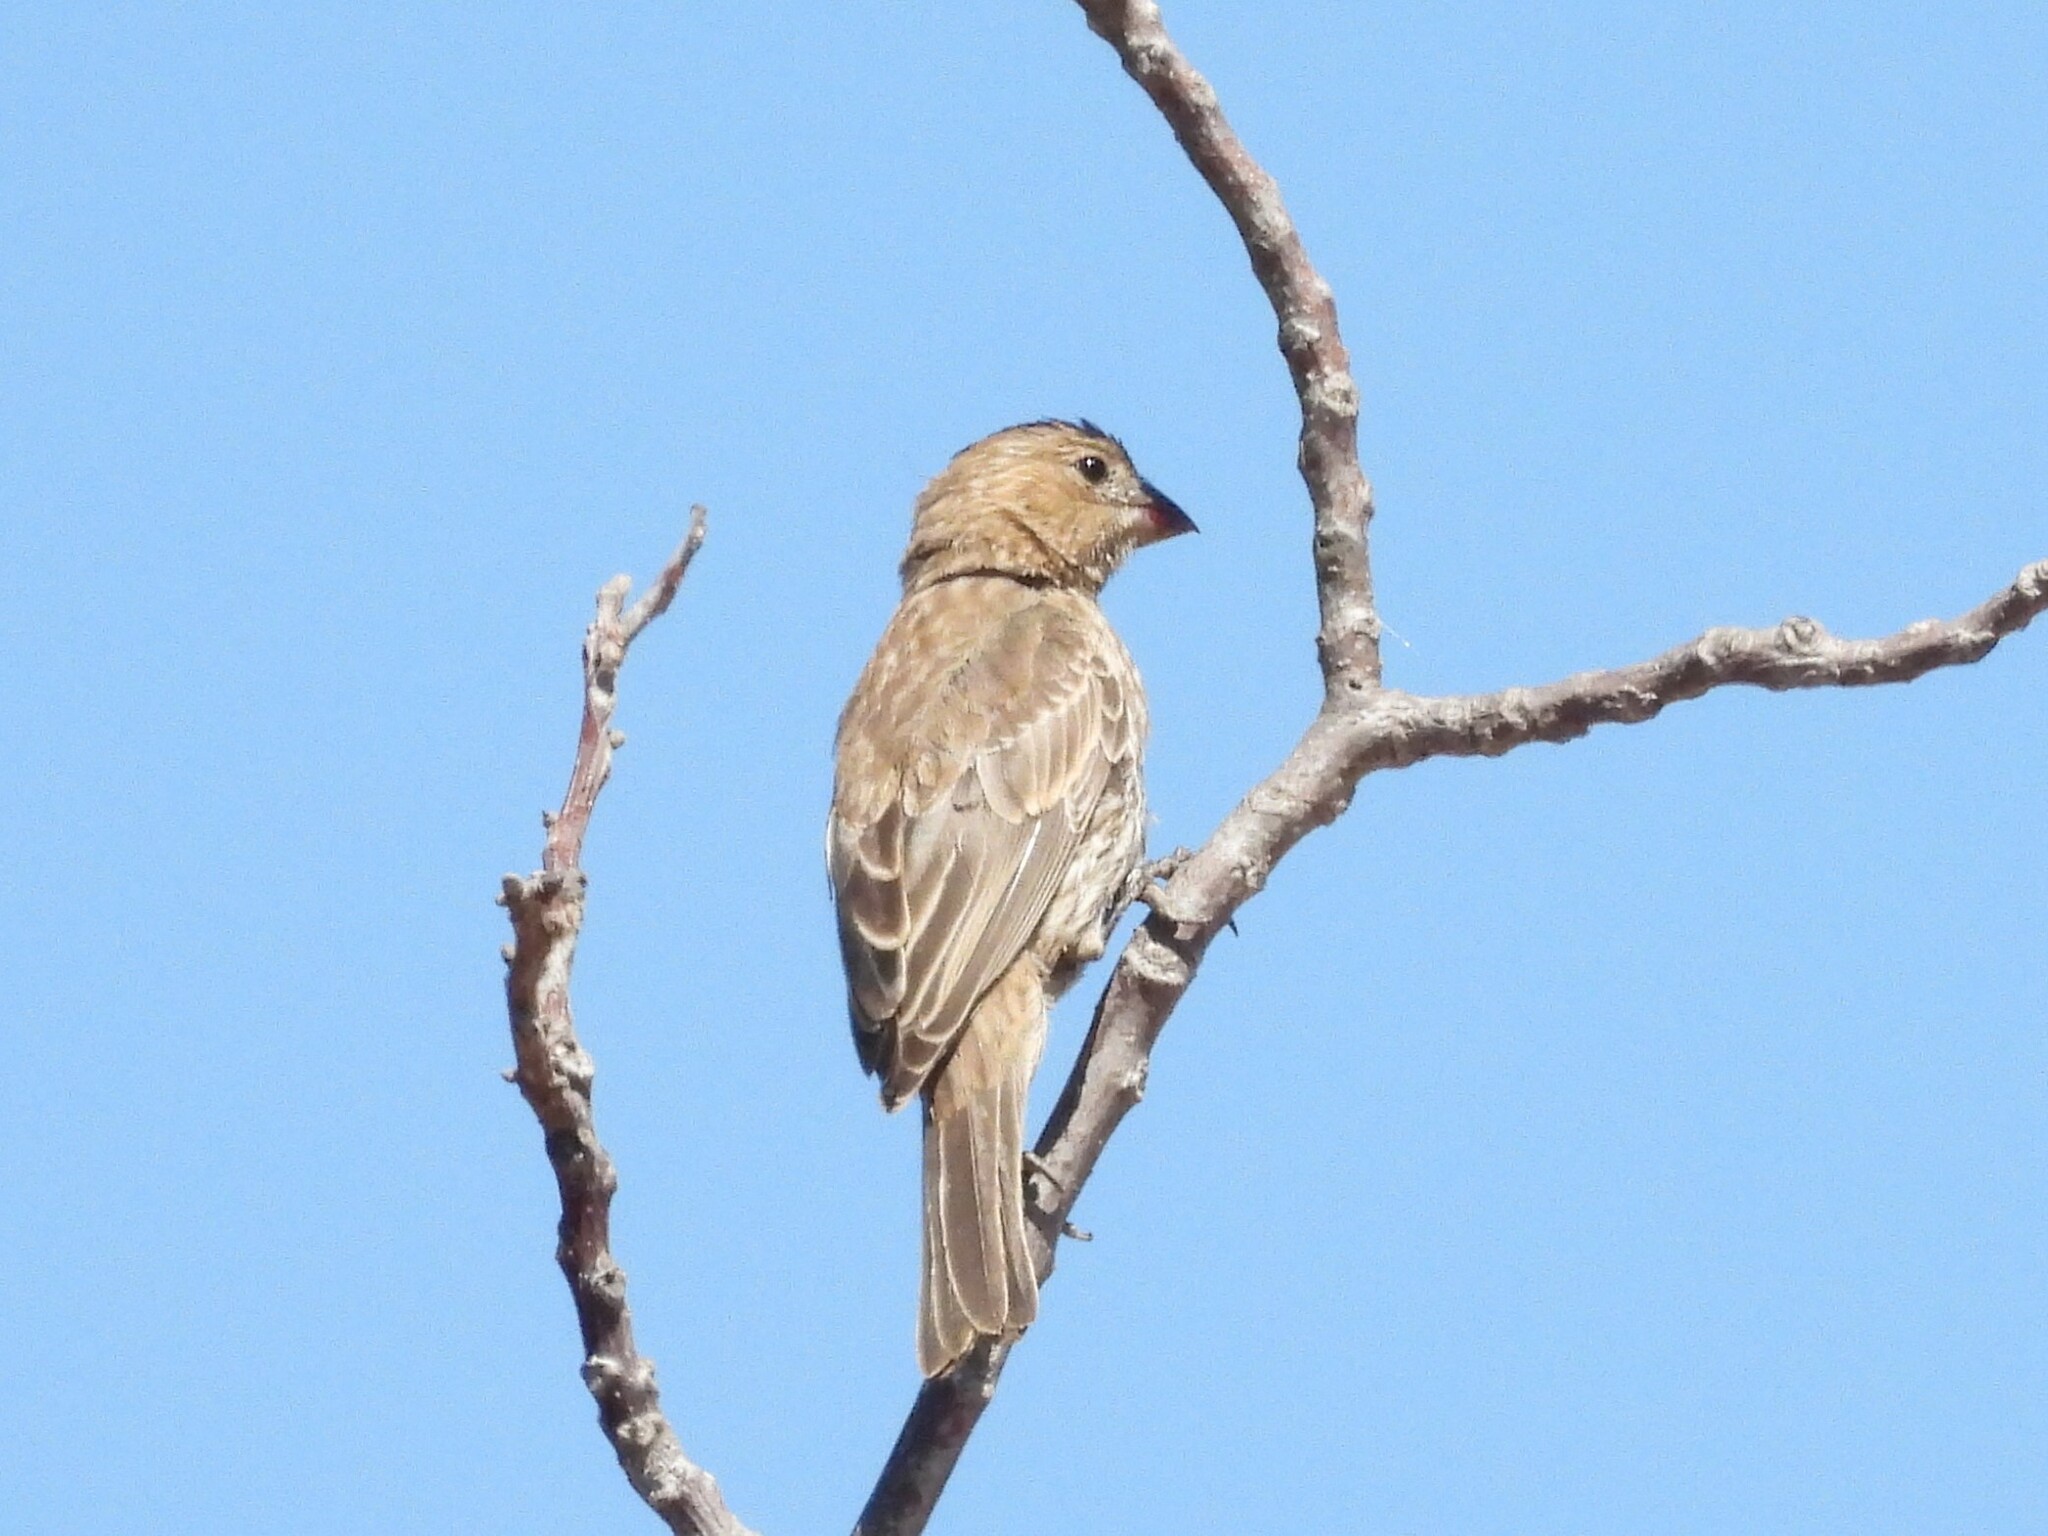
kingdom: Animalia
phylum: Chordata
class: Aves
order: Passeriformes
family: Fringillidae
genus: Haemorhous
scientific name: Haemorhous mexicanus
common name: House finch
